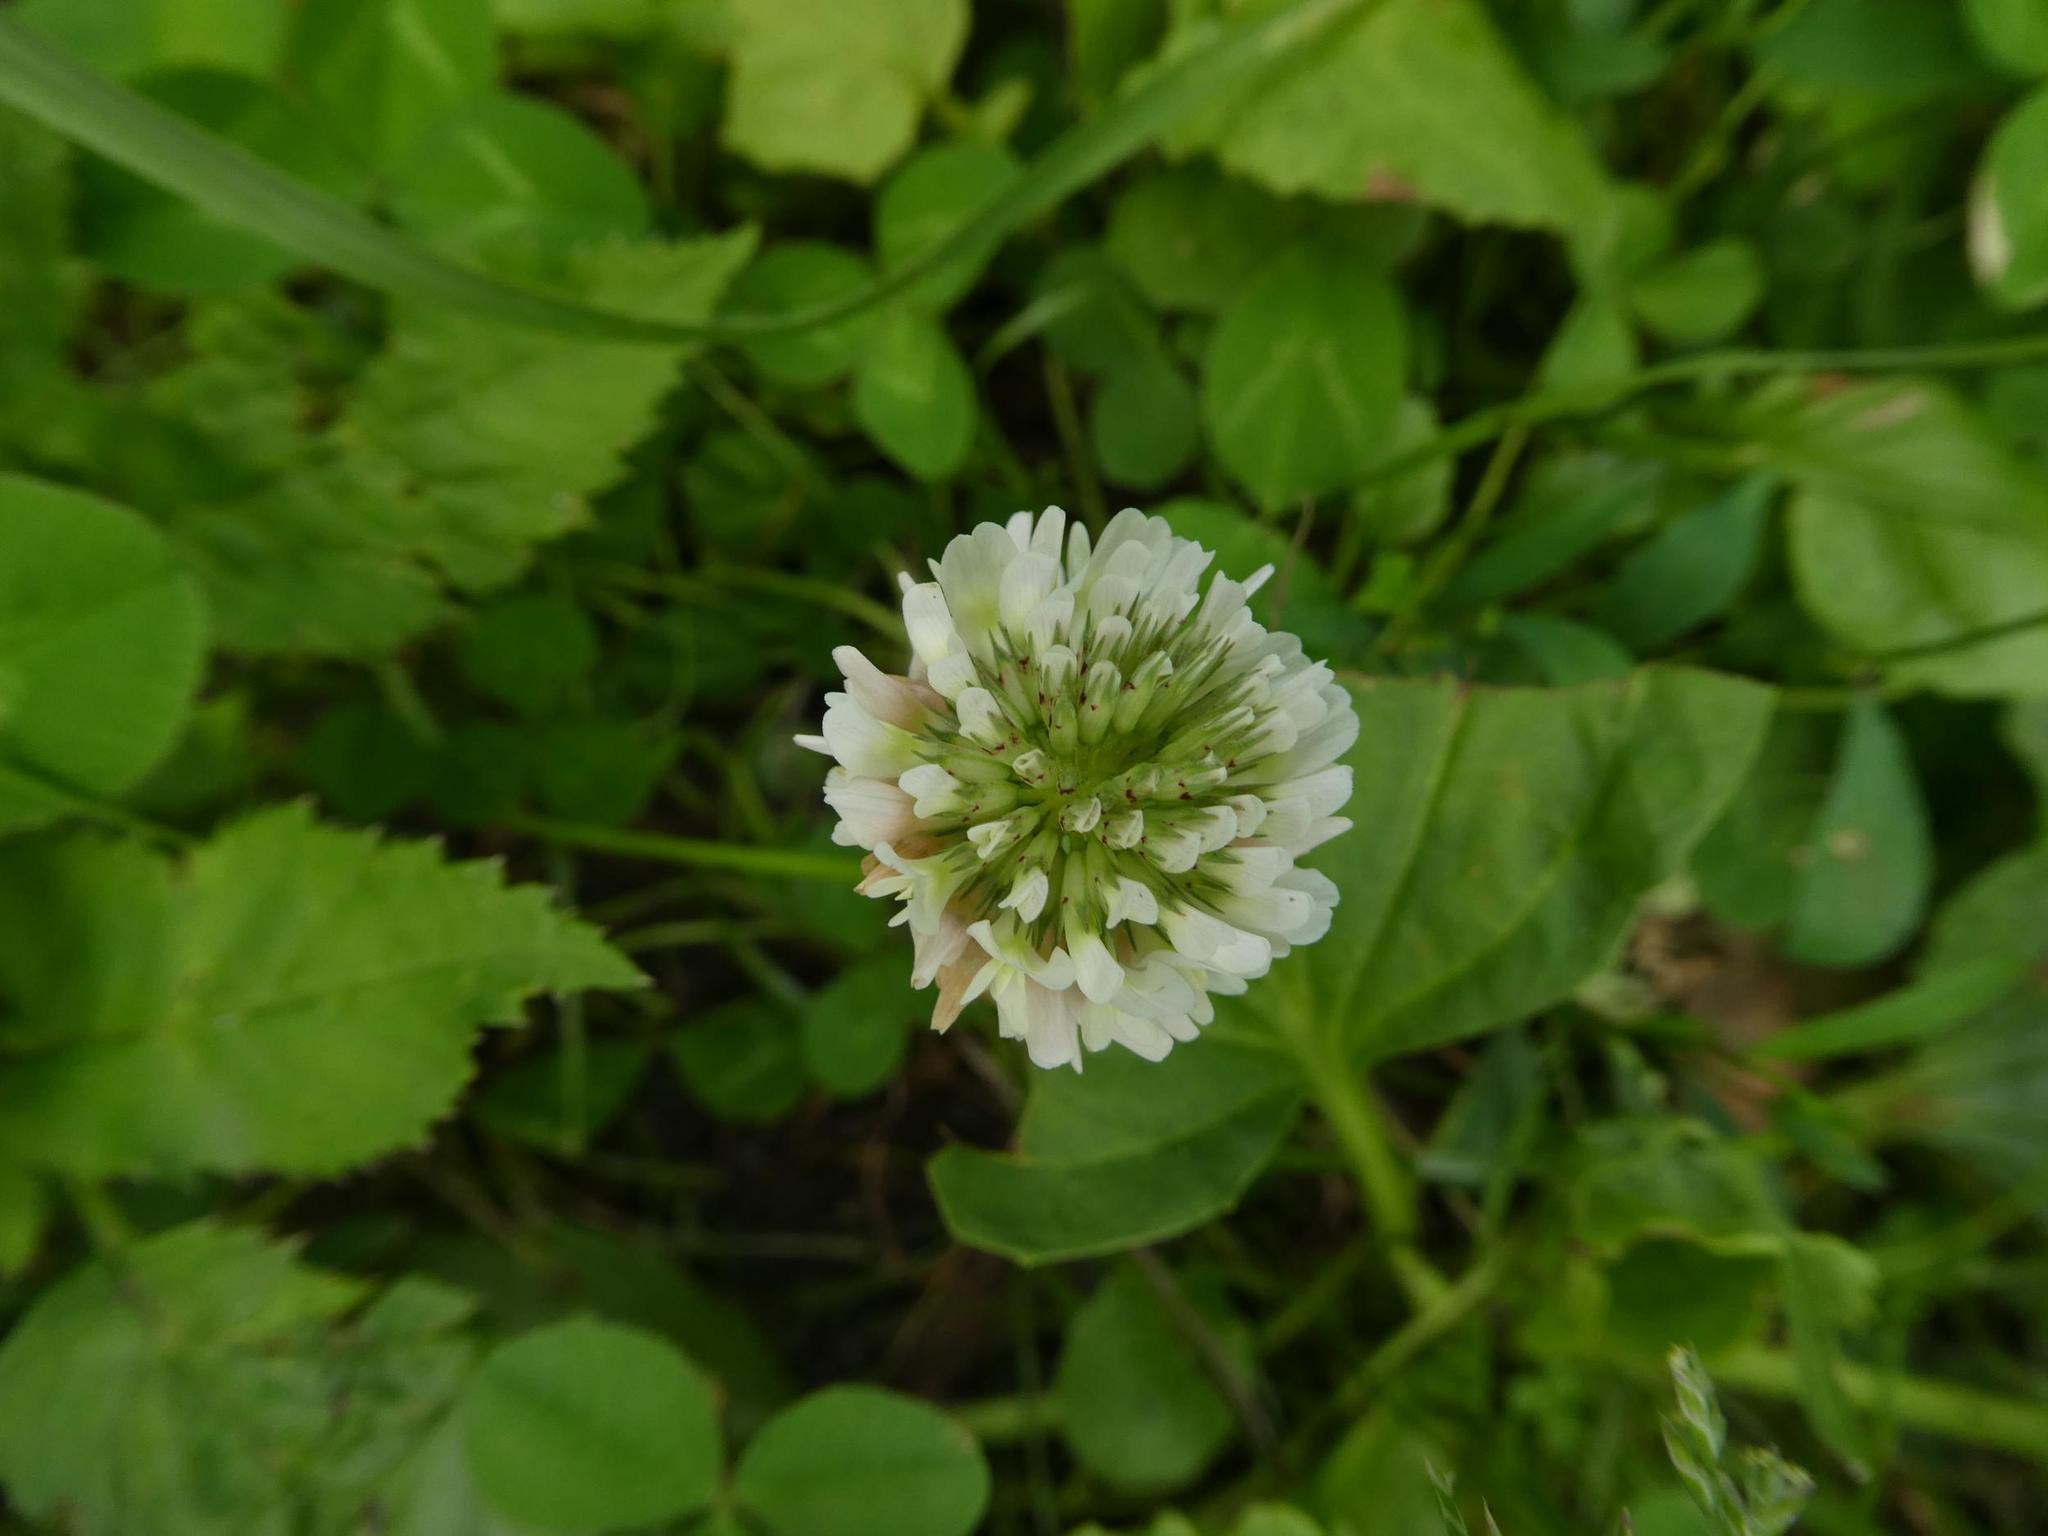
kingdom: Plantae
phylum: Tracheophyta
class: Magnoliopsida
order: Fabales
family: Fabaceae
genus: Trifolium
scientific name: Trifolium repens
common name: White clover
